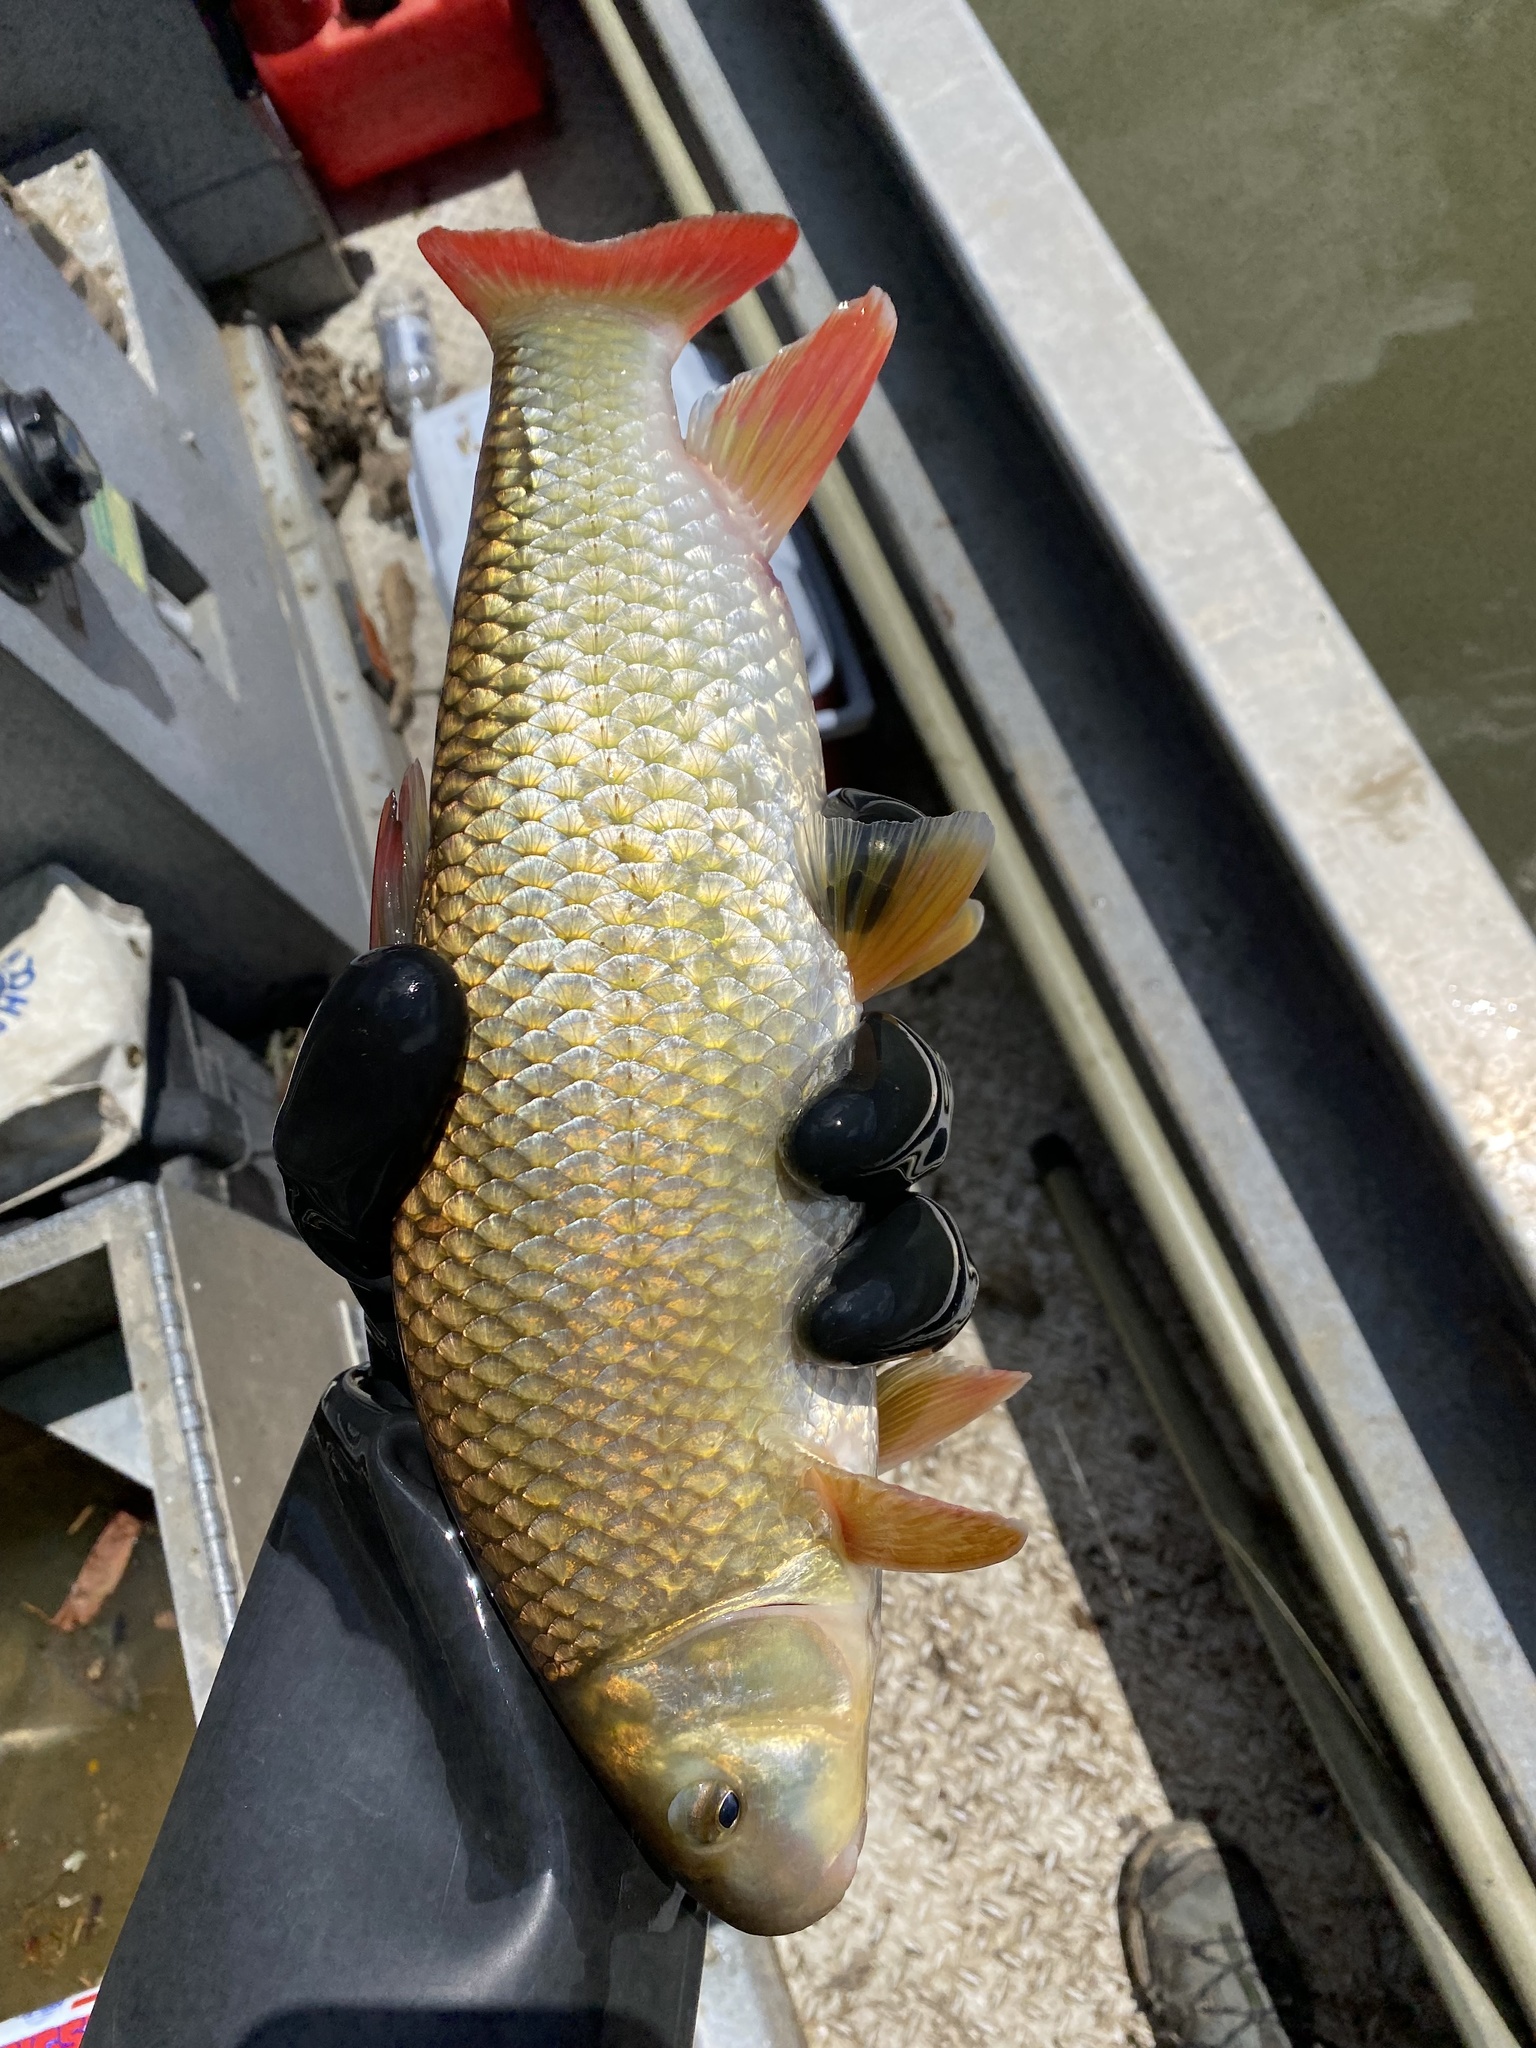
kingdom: Animalia
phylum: Chordata
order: Cypriniformes
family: Catostomidae
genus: Moxostoma
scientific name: Moxostoma carinatum
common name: River redhorse
